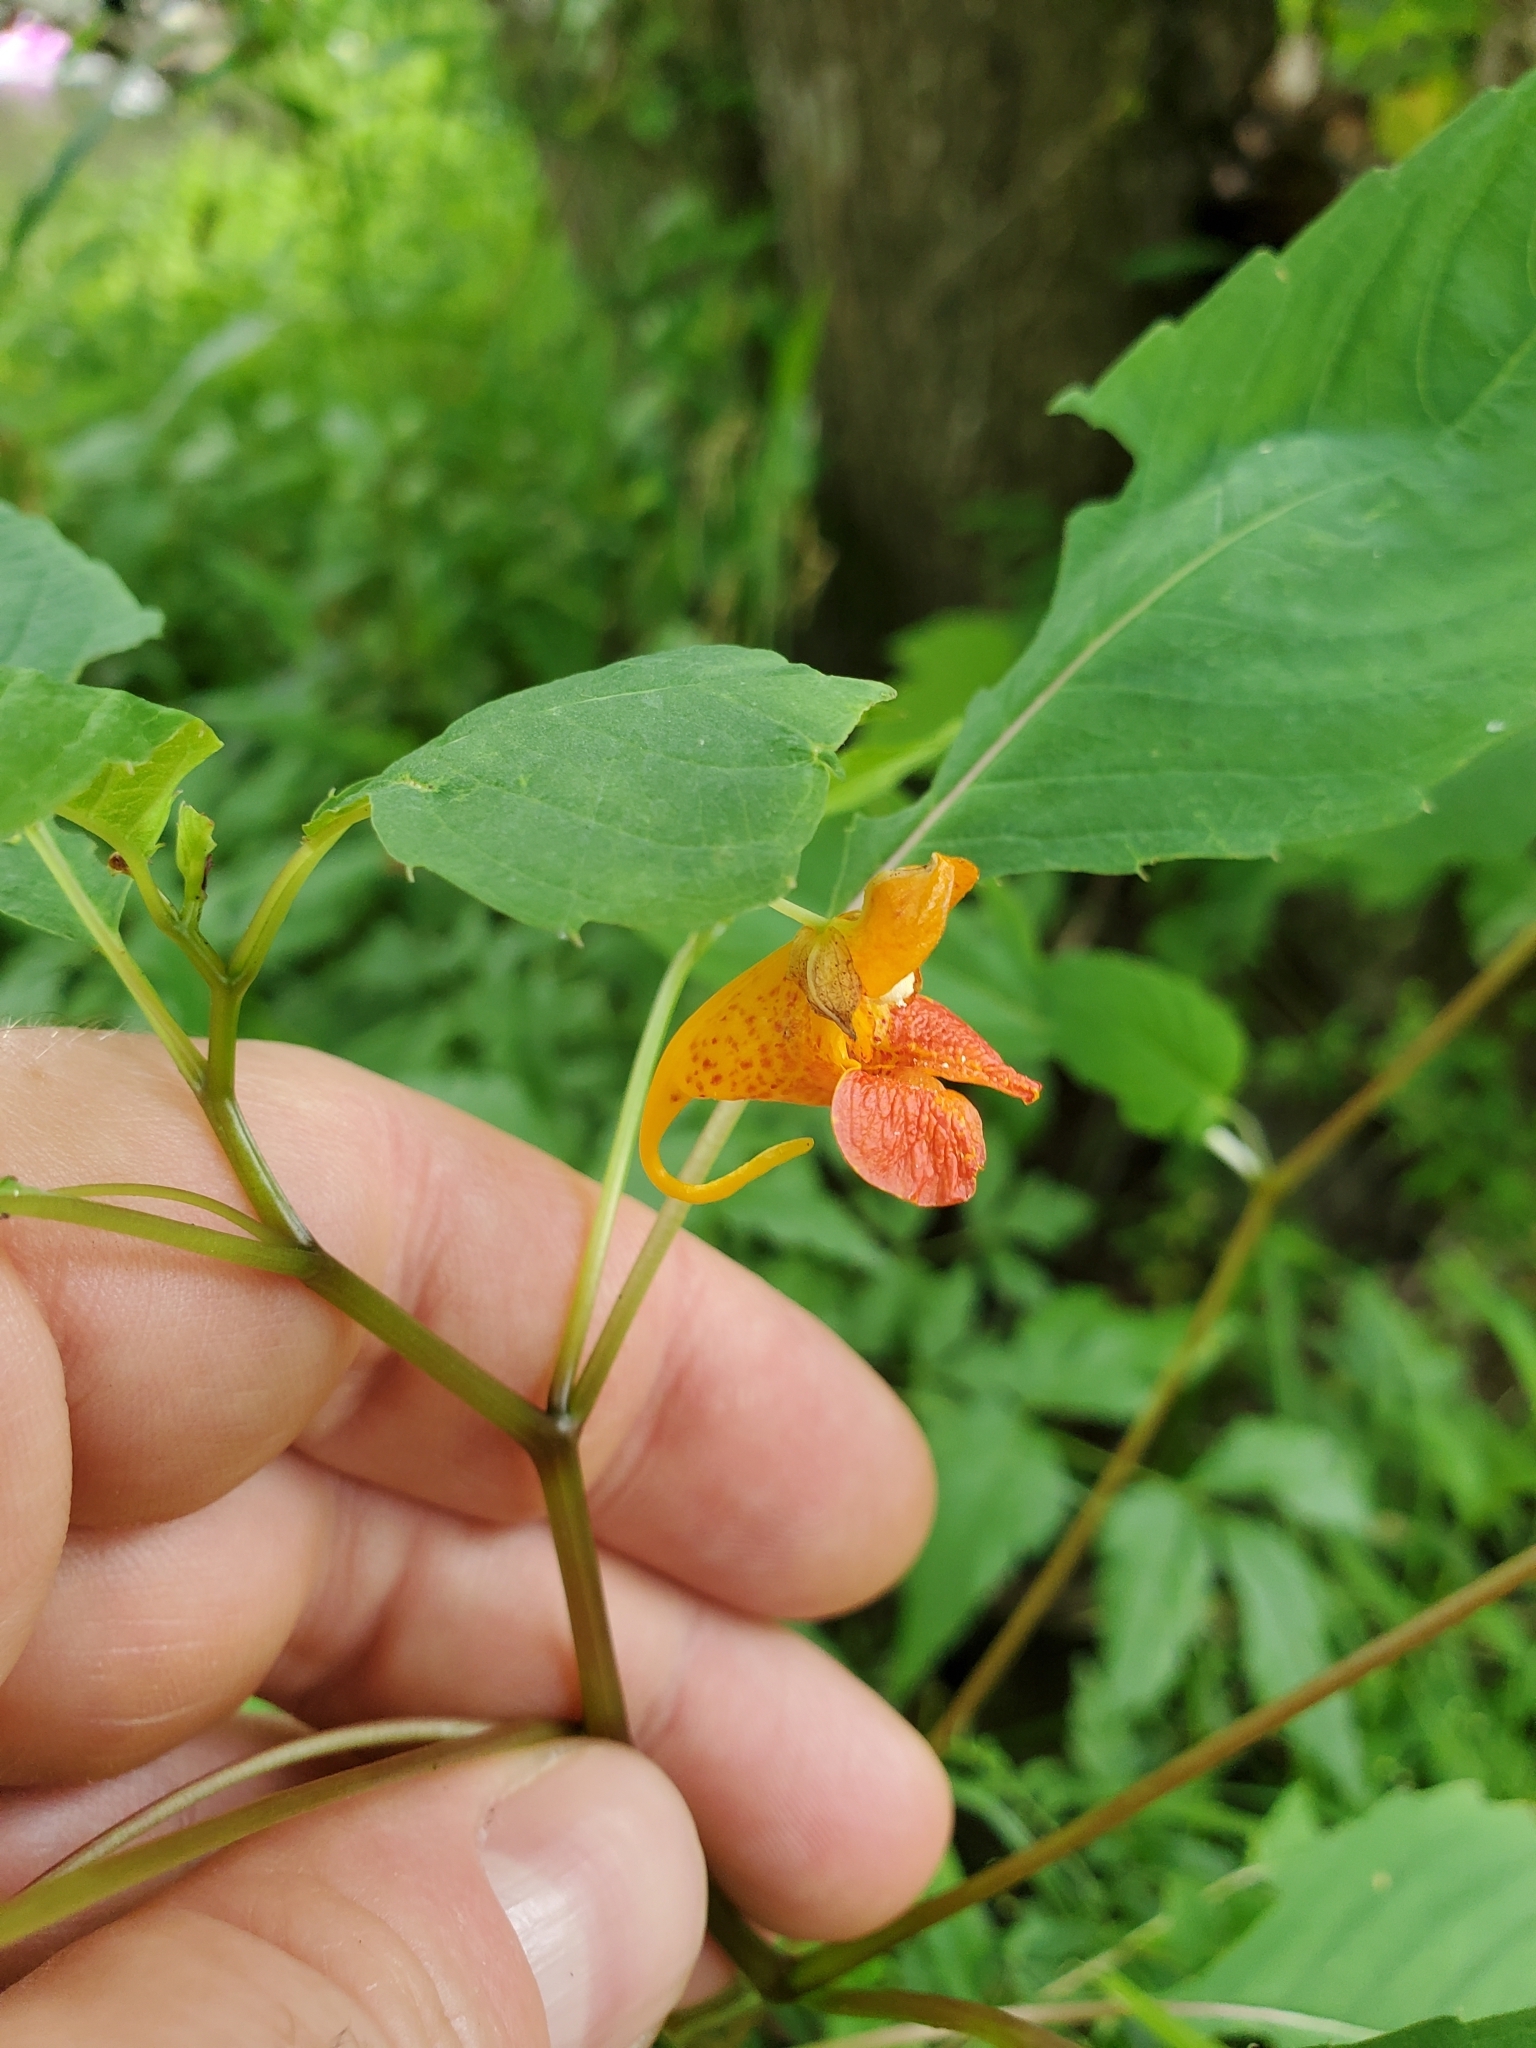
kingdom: Plantae
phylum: Tracheophyta
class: Magnoliopsida
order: Ericales
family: Balsaminaceae
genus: Impatiens
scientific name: Impatiens capensis
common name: Orange balsam
